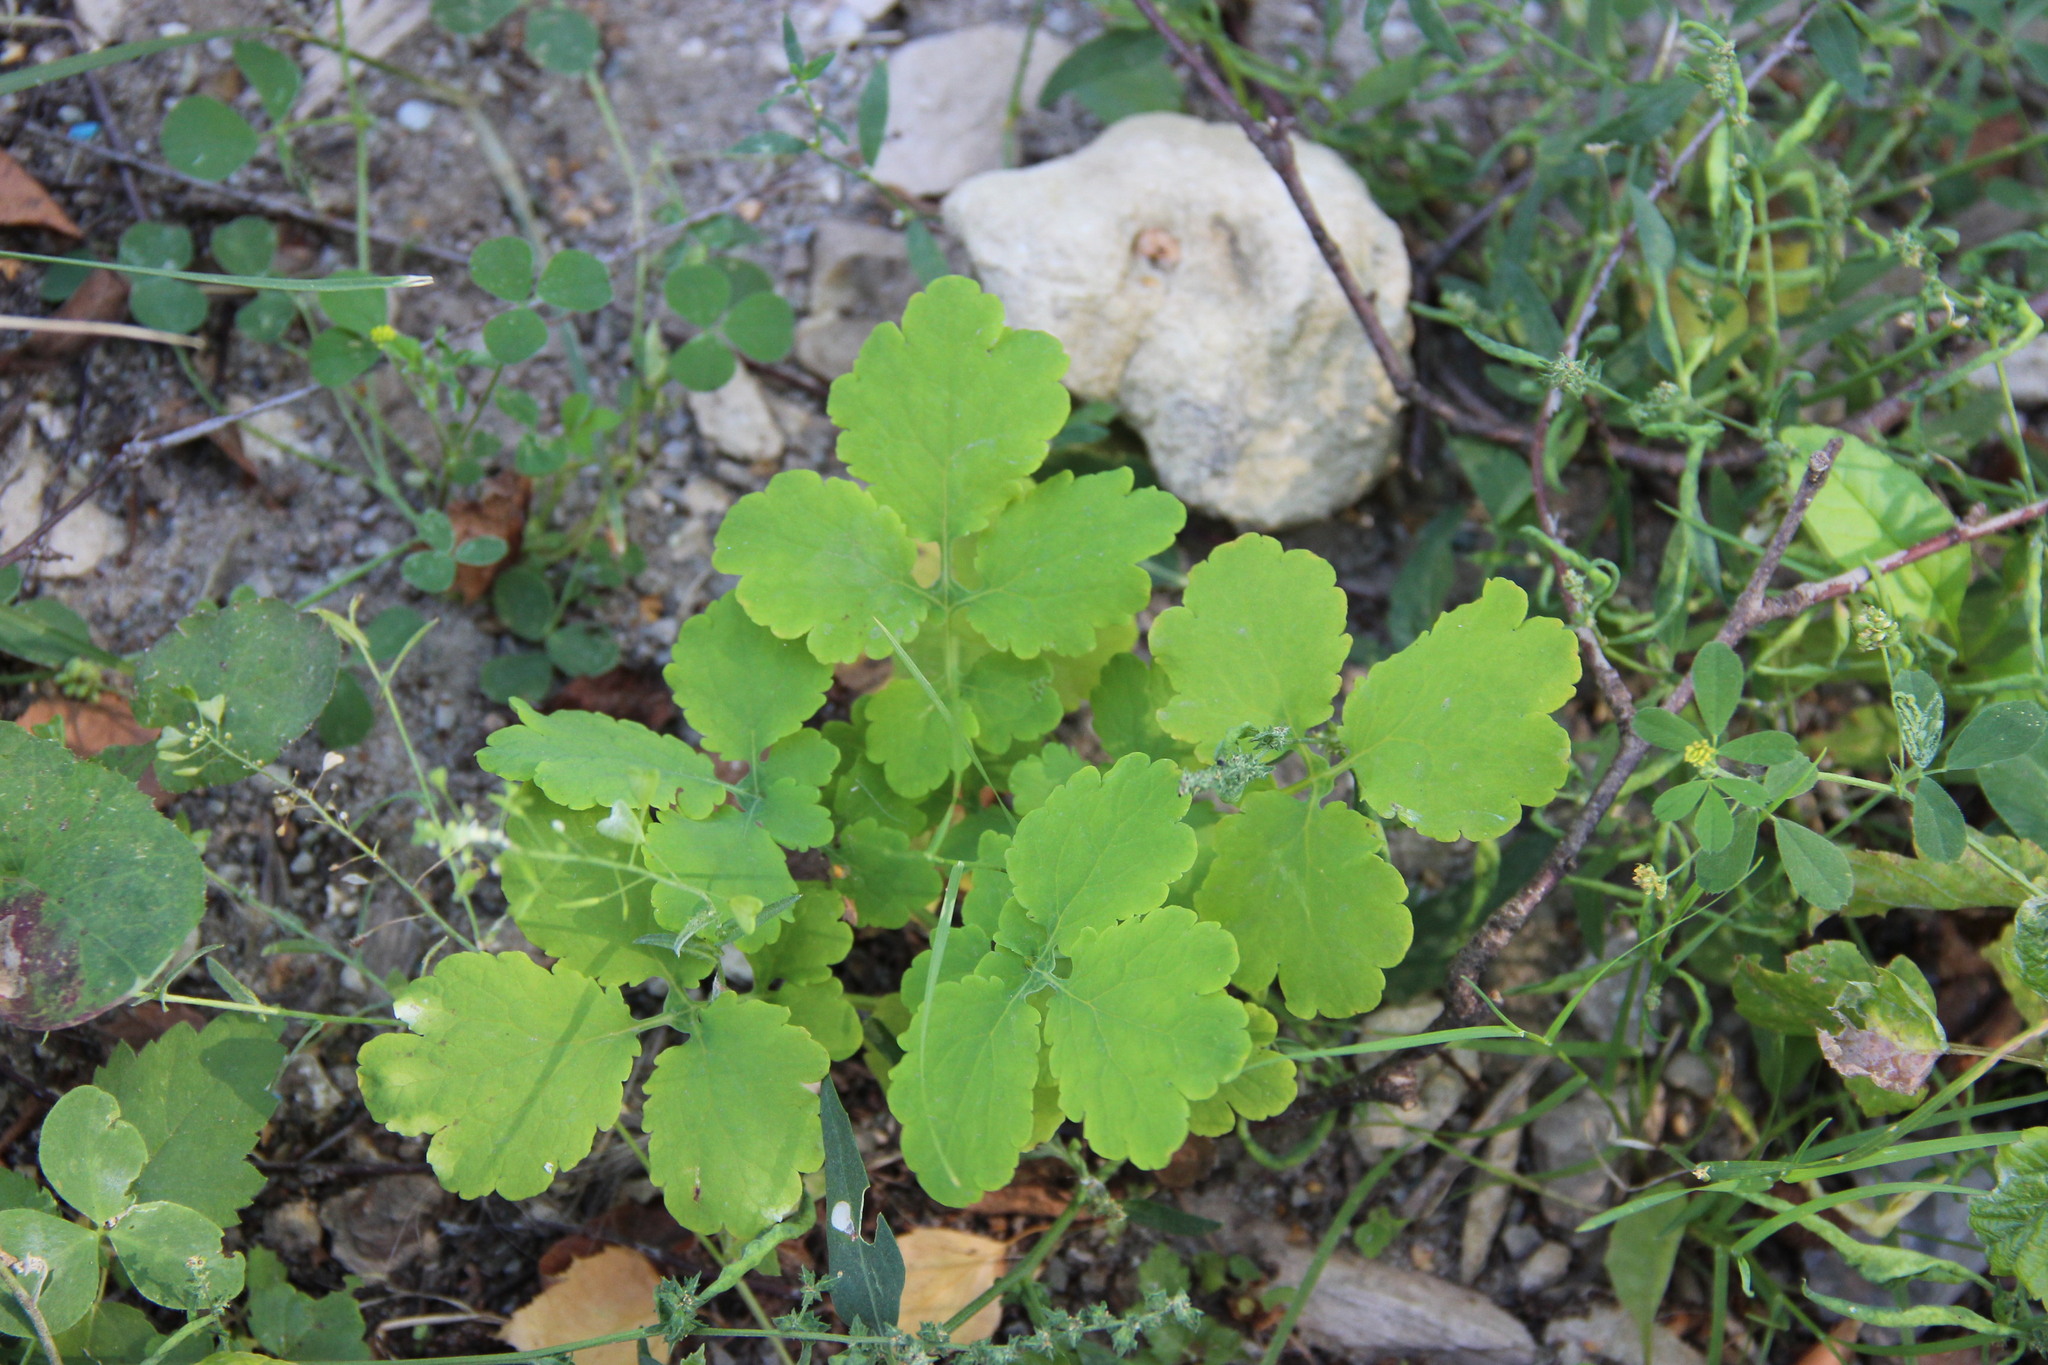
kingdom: Plantae
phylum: Tracheophyta
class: Magnoliopsida
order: Ranunculales
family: Papaveraceae
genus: Chelidonium
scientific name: Chelidonium majus
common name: Greater celandine
